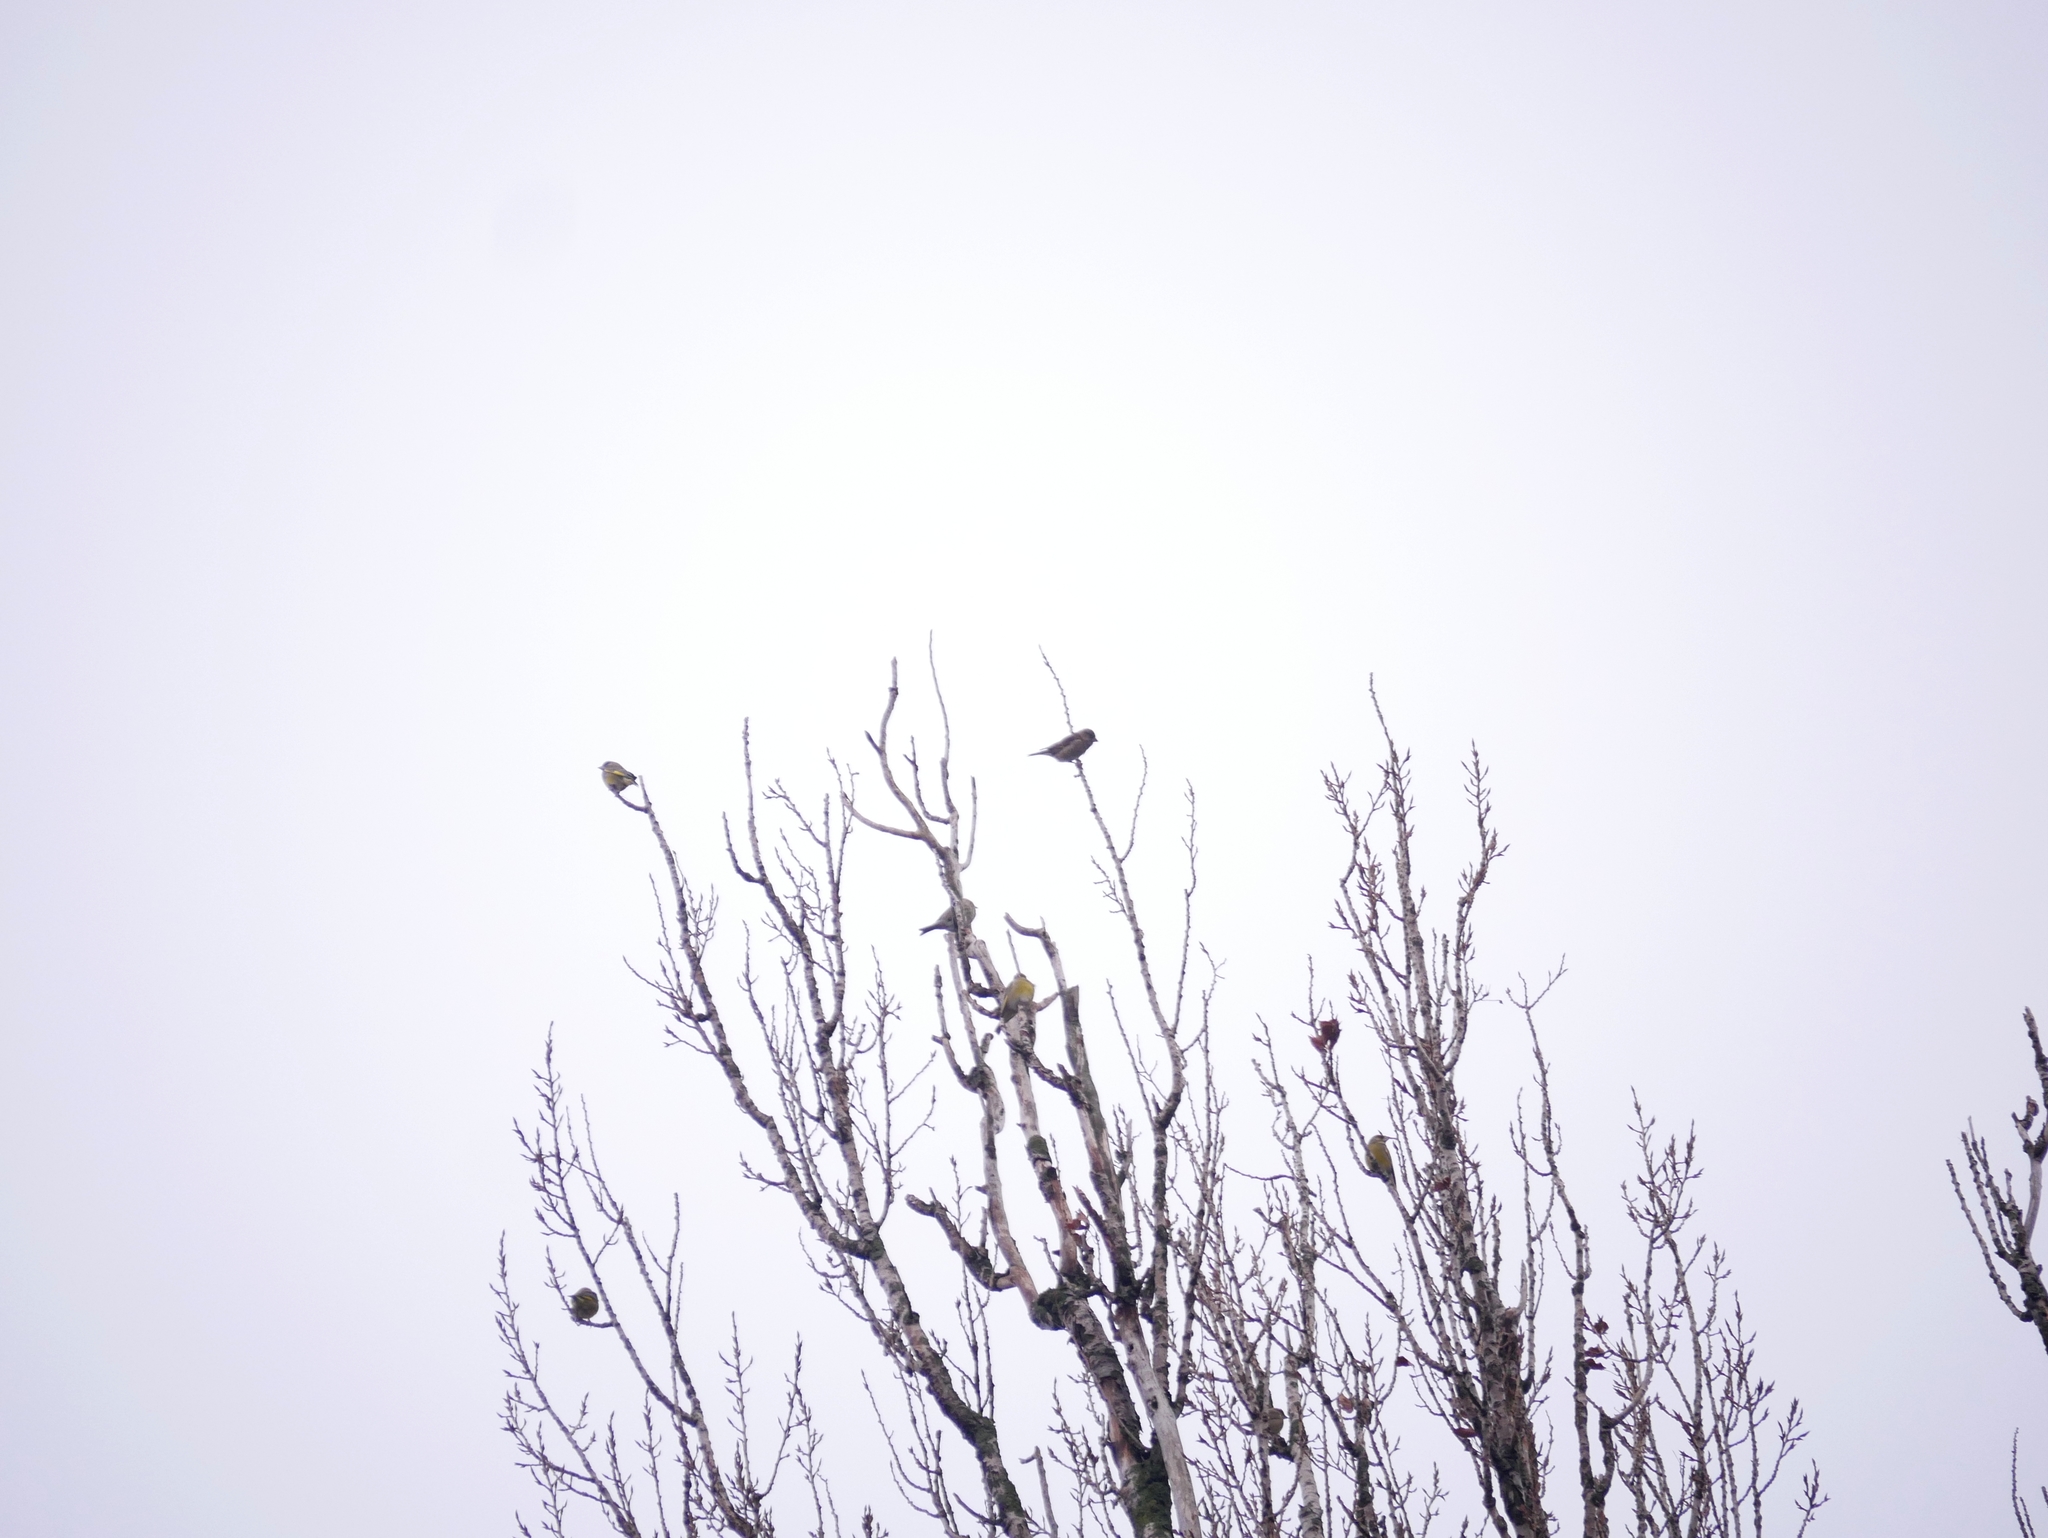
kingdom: Plantae
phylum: Tracheophyta
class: Liliopsida
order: Poales
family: Poaceae
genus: Chloris
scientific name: Chloris chloris
